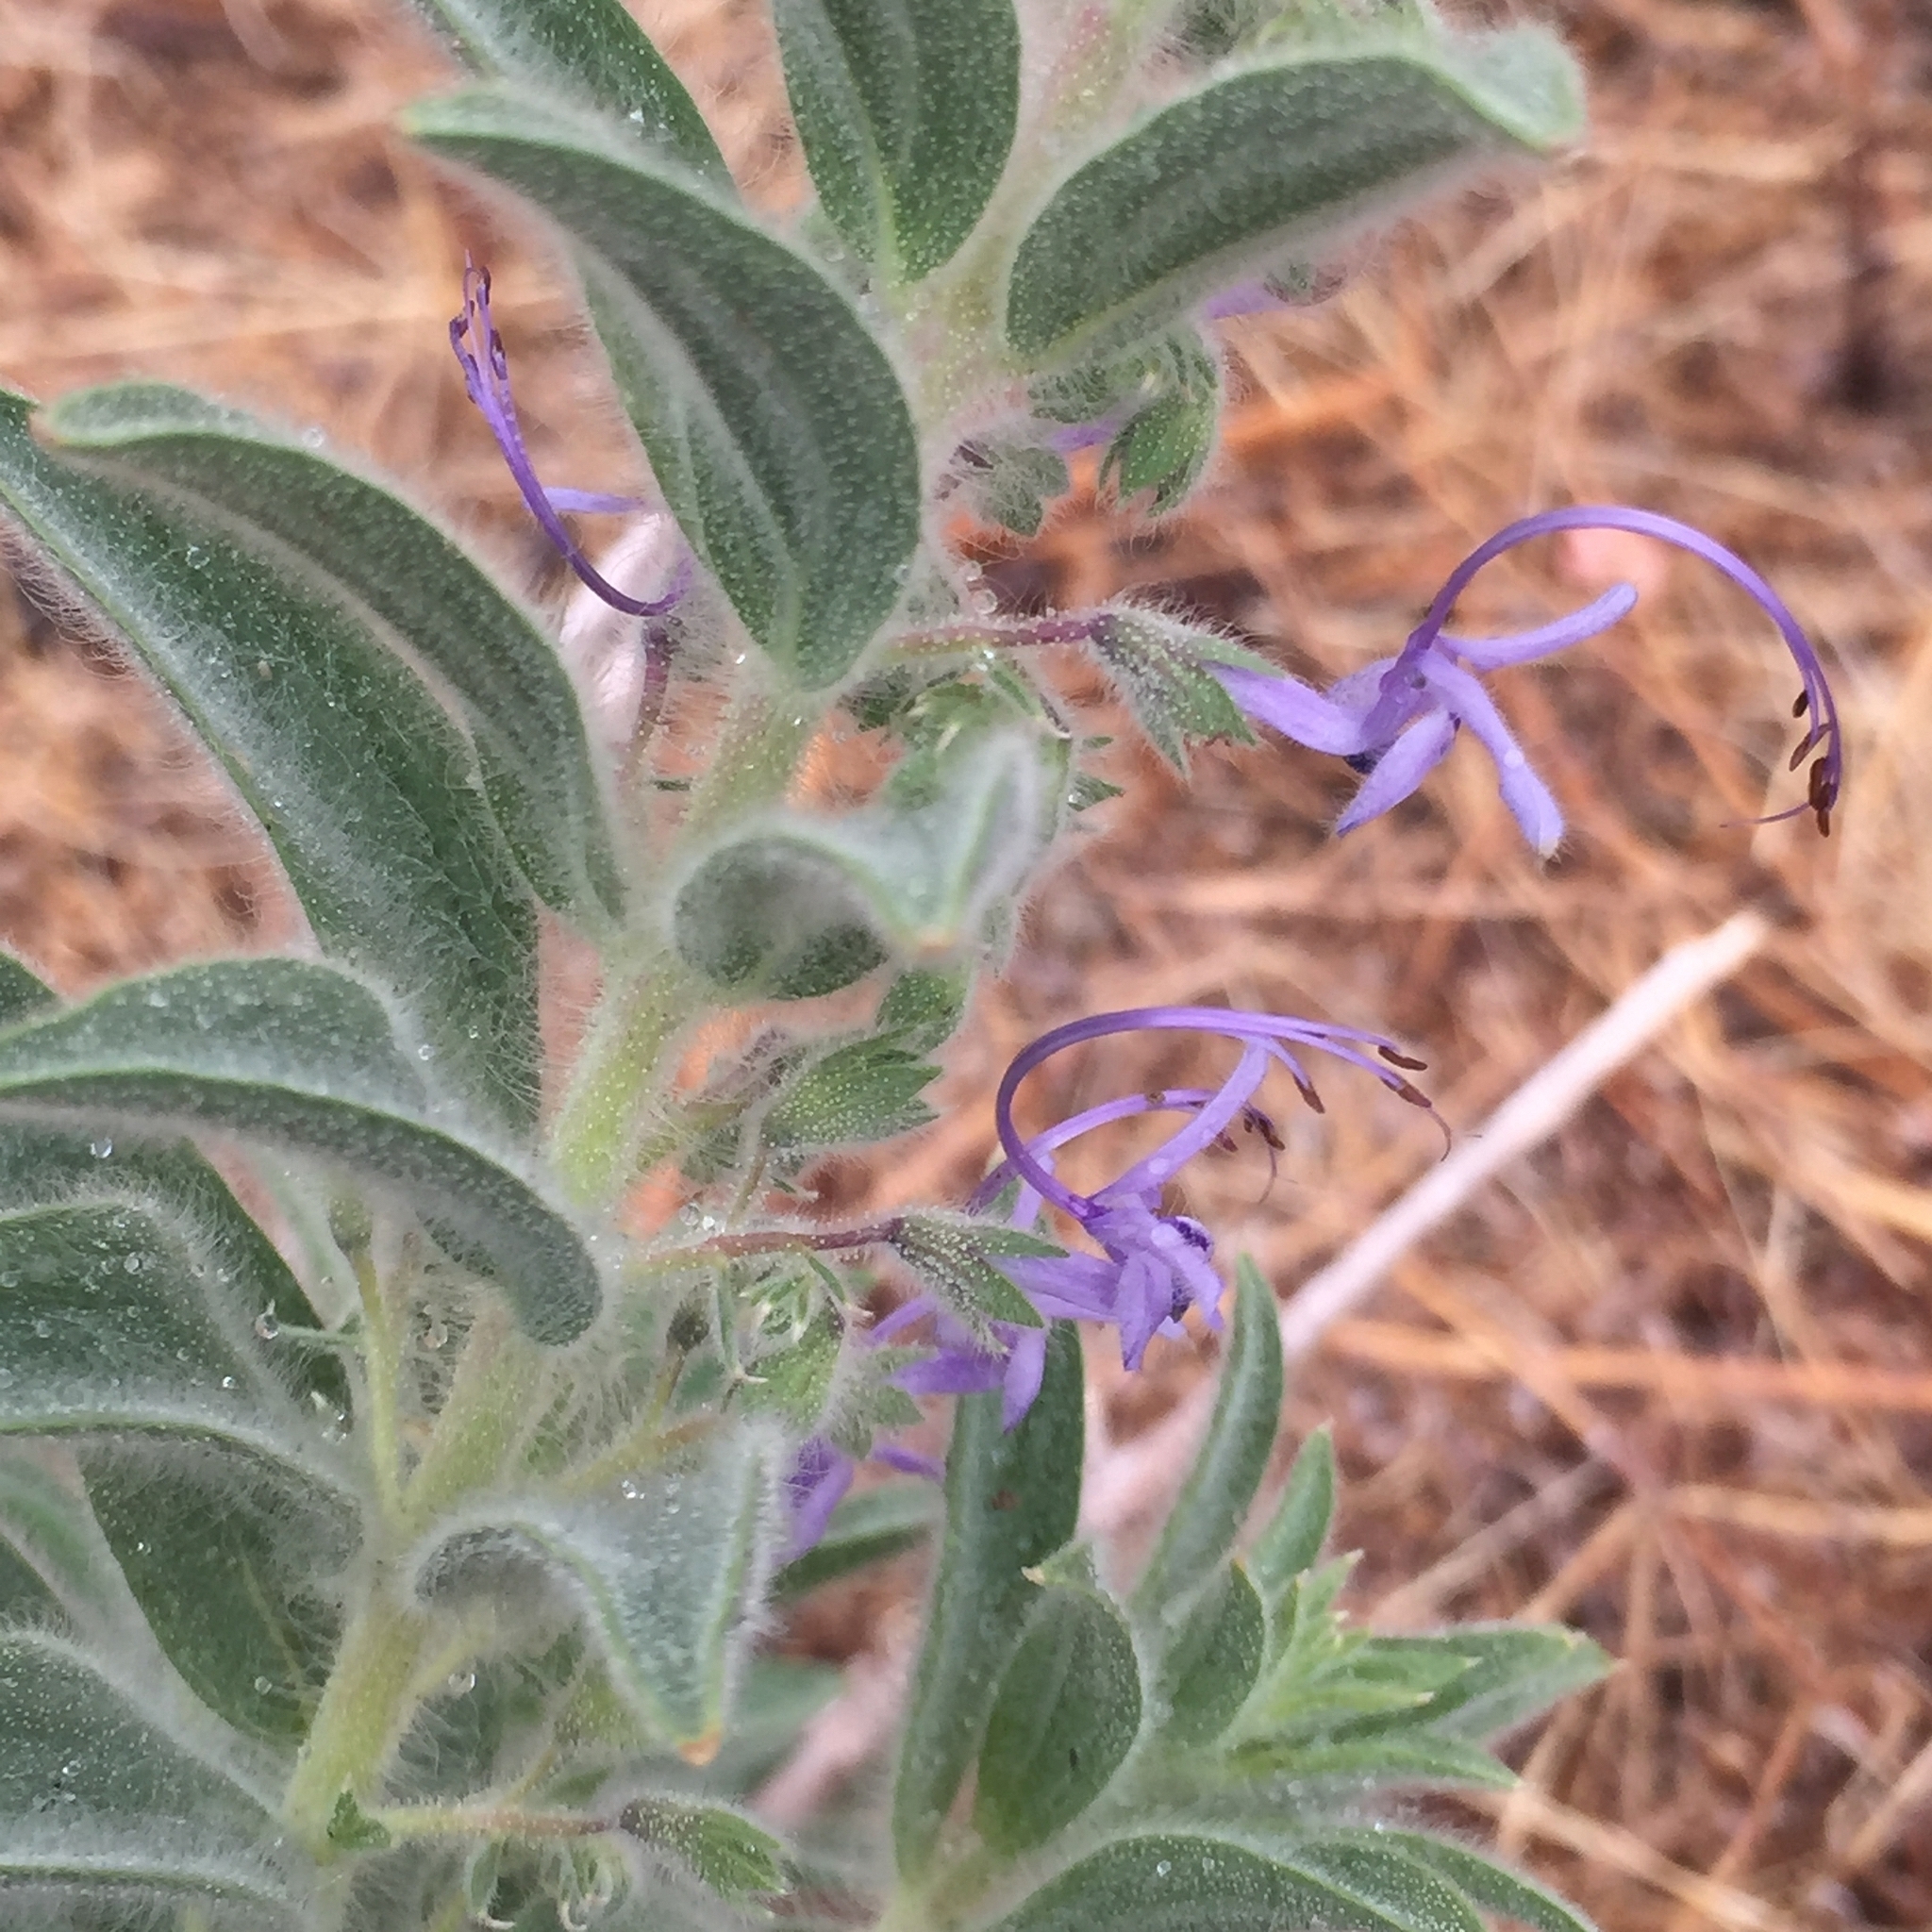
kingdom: Plantae
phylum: Tracheophyta
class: Magnoliopsida
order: Lamiales
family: Lamiaceae
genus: Trichostema
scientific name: Trichostema lanceolatum
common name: Vinegar-weed
